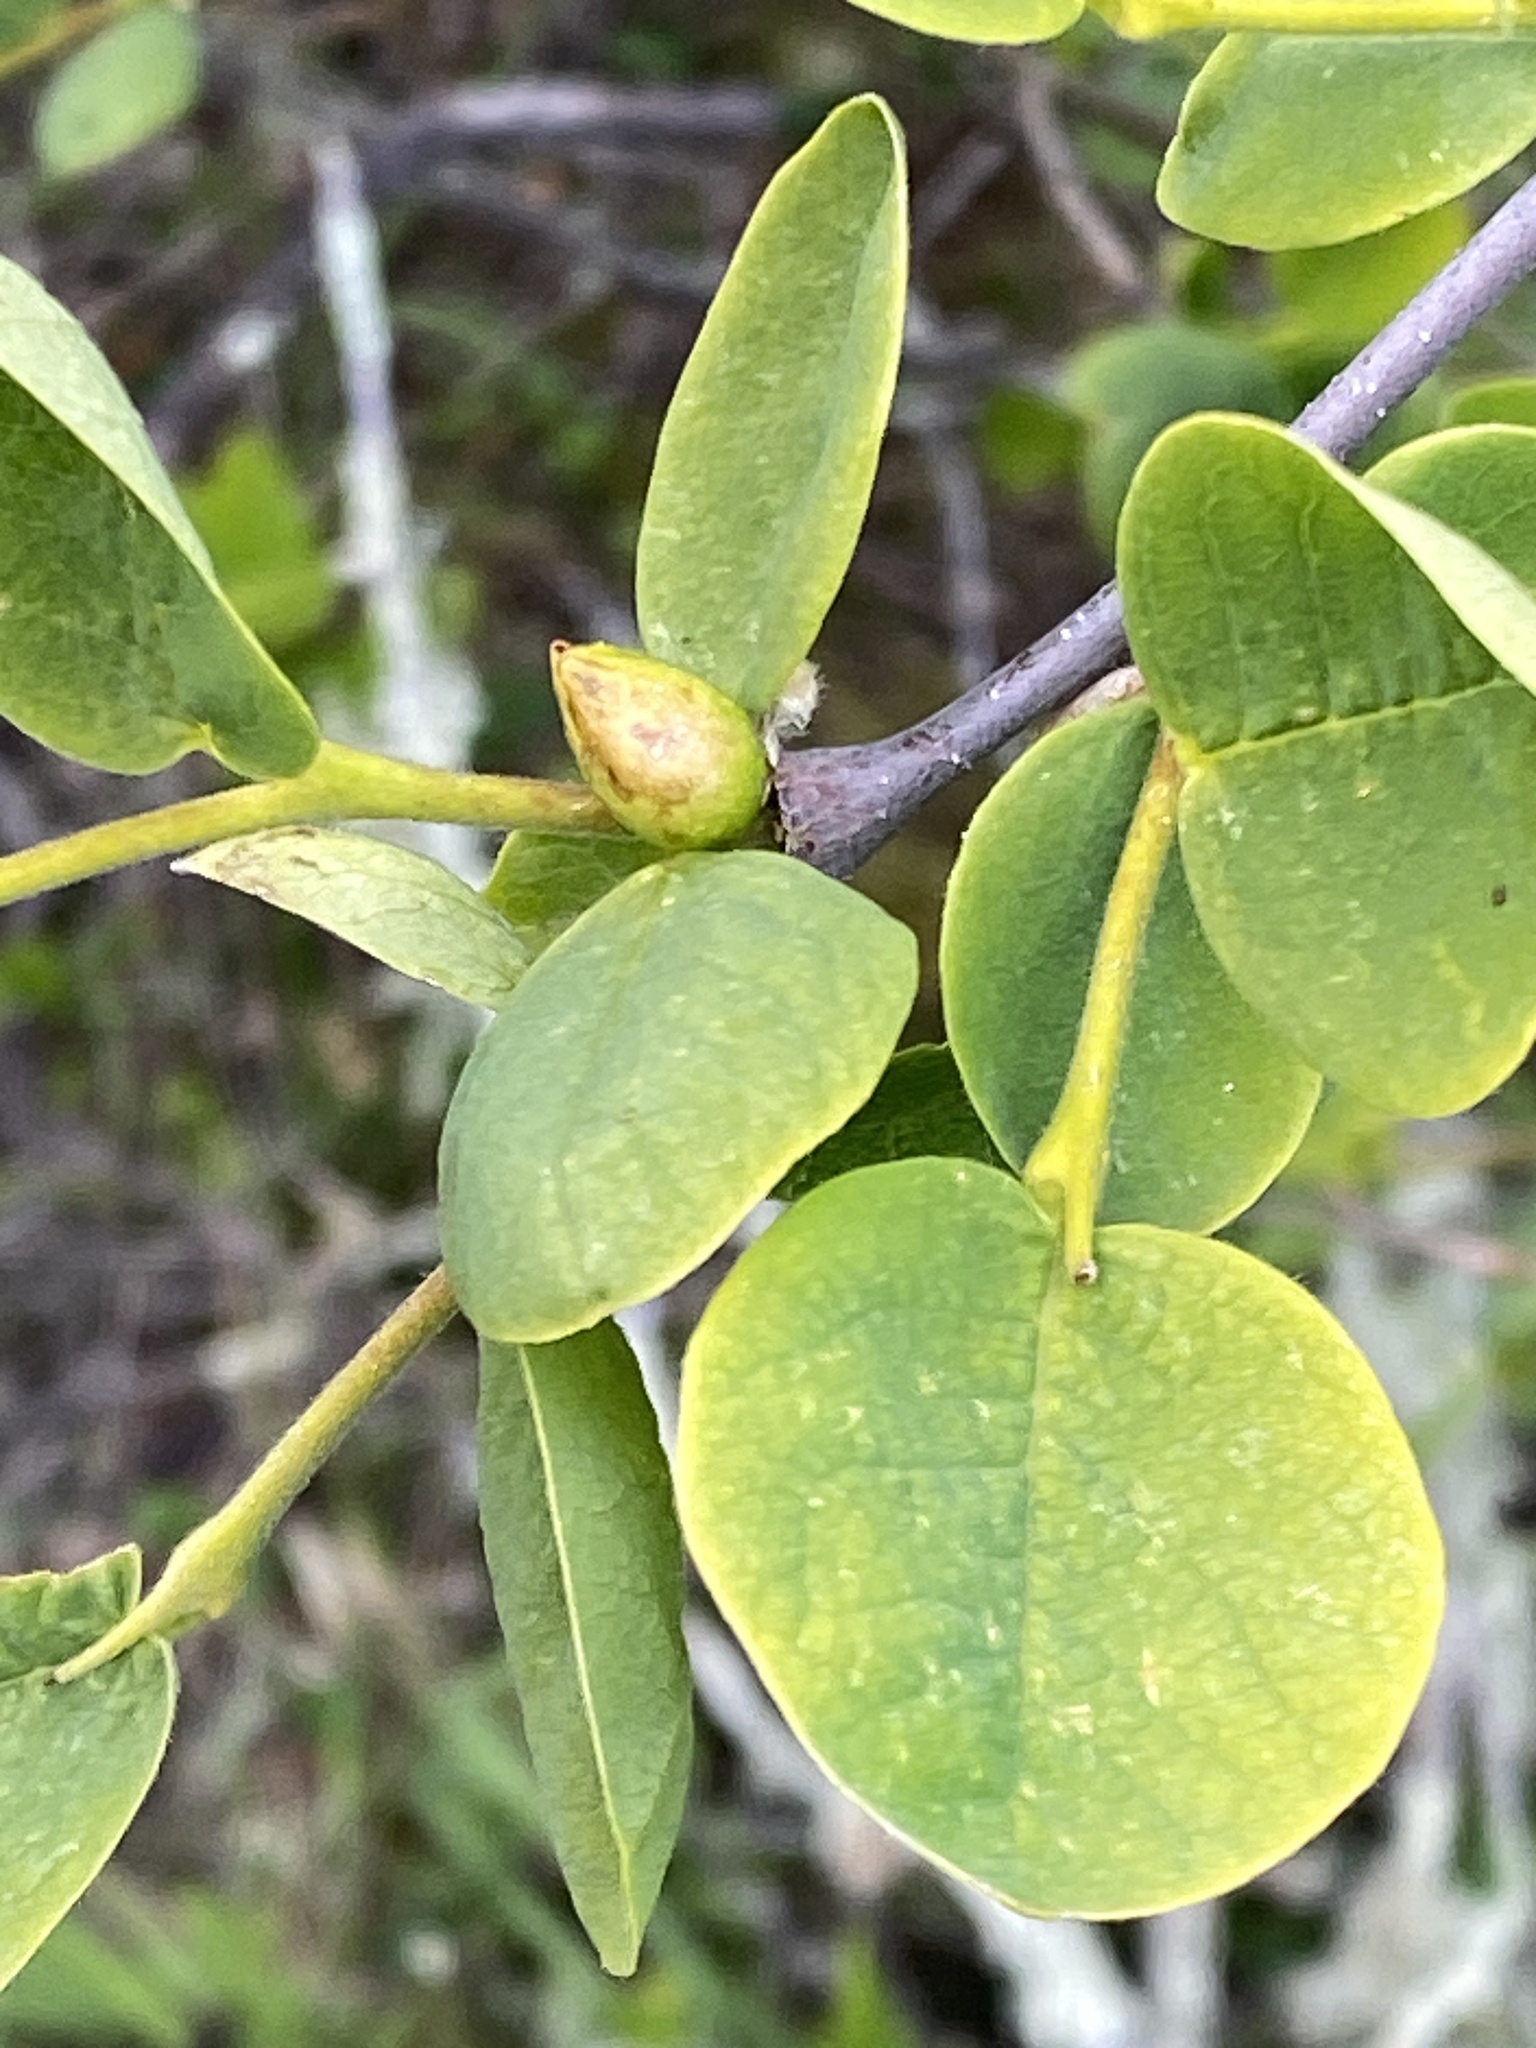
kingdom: Plantae
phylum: Tracheophyta
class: Magnoliopsida
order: Malvales
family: Thymelaeaceae
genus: Dirca
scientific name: Dirca occidentalis
